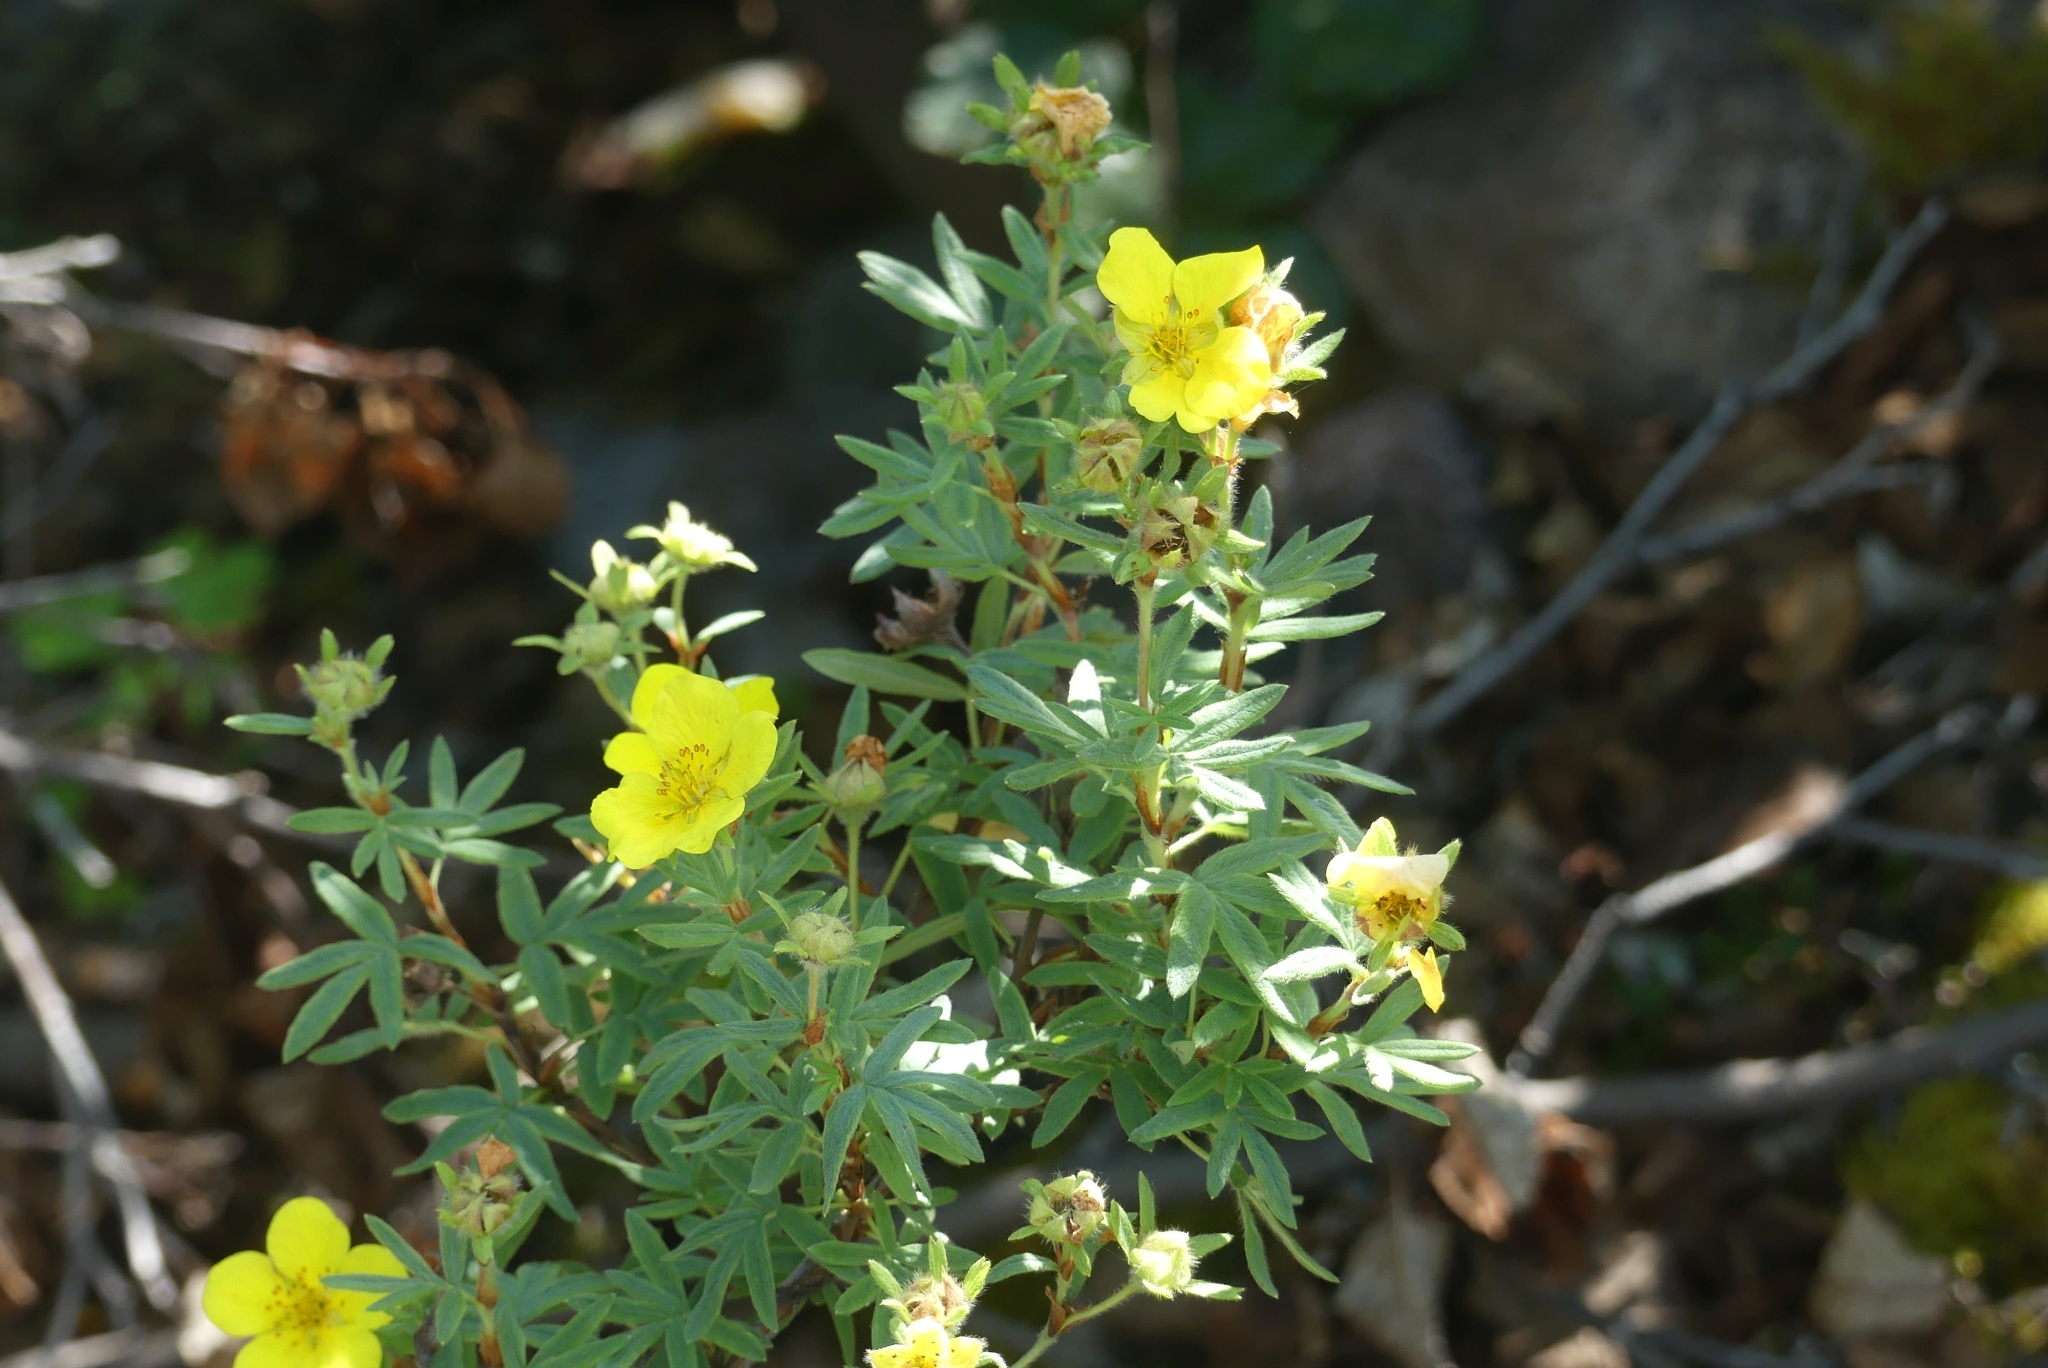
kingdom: Plantae
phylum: Tracheophyta
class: Magnoliopsida
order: Rosales
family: Rosaceae
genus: Dasiphora
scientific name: Dasiphora fruticosa
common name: Shrubby cinquefoil
